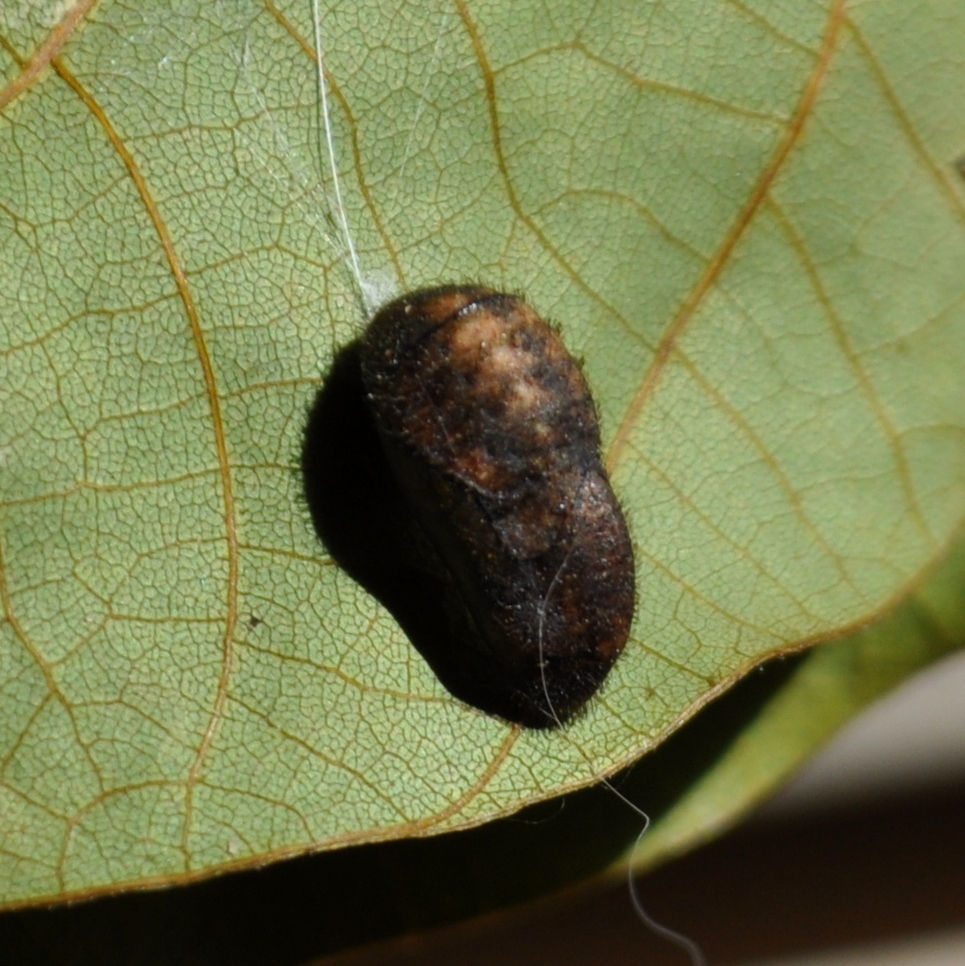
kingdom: Animalia
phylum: Arthropoda
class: Insecta
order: Lepidoptera
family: Lycaenidae
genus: Thecla
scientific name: Thecla herodotus
